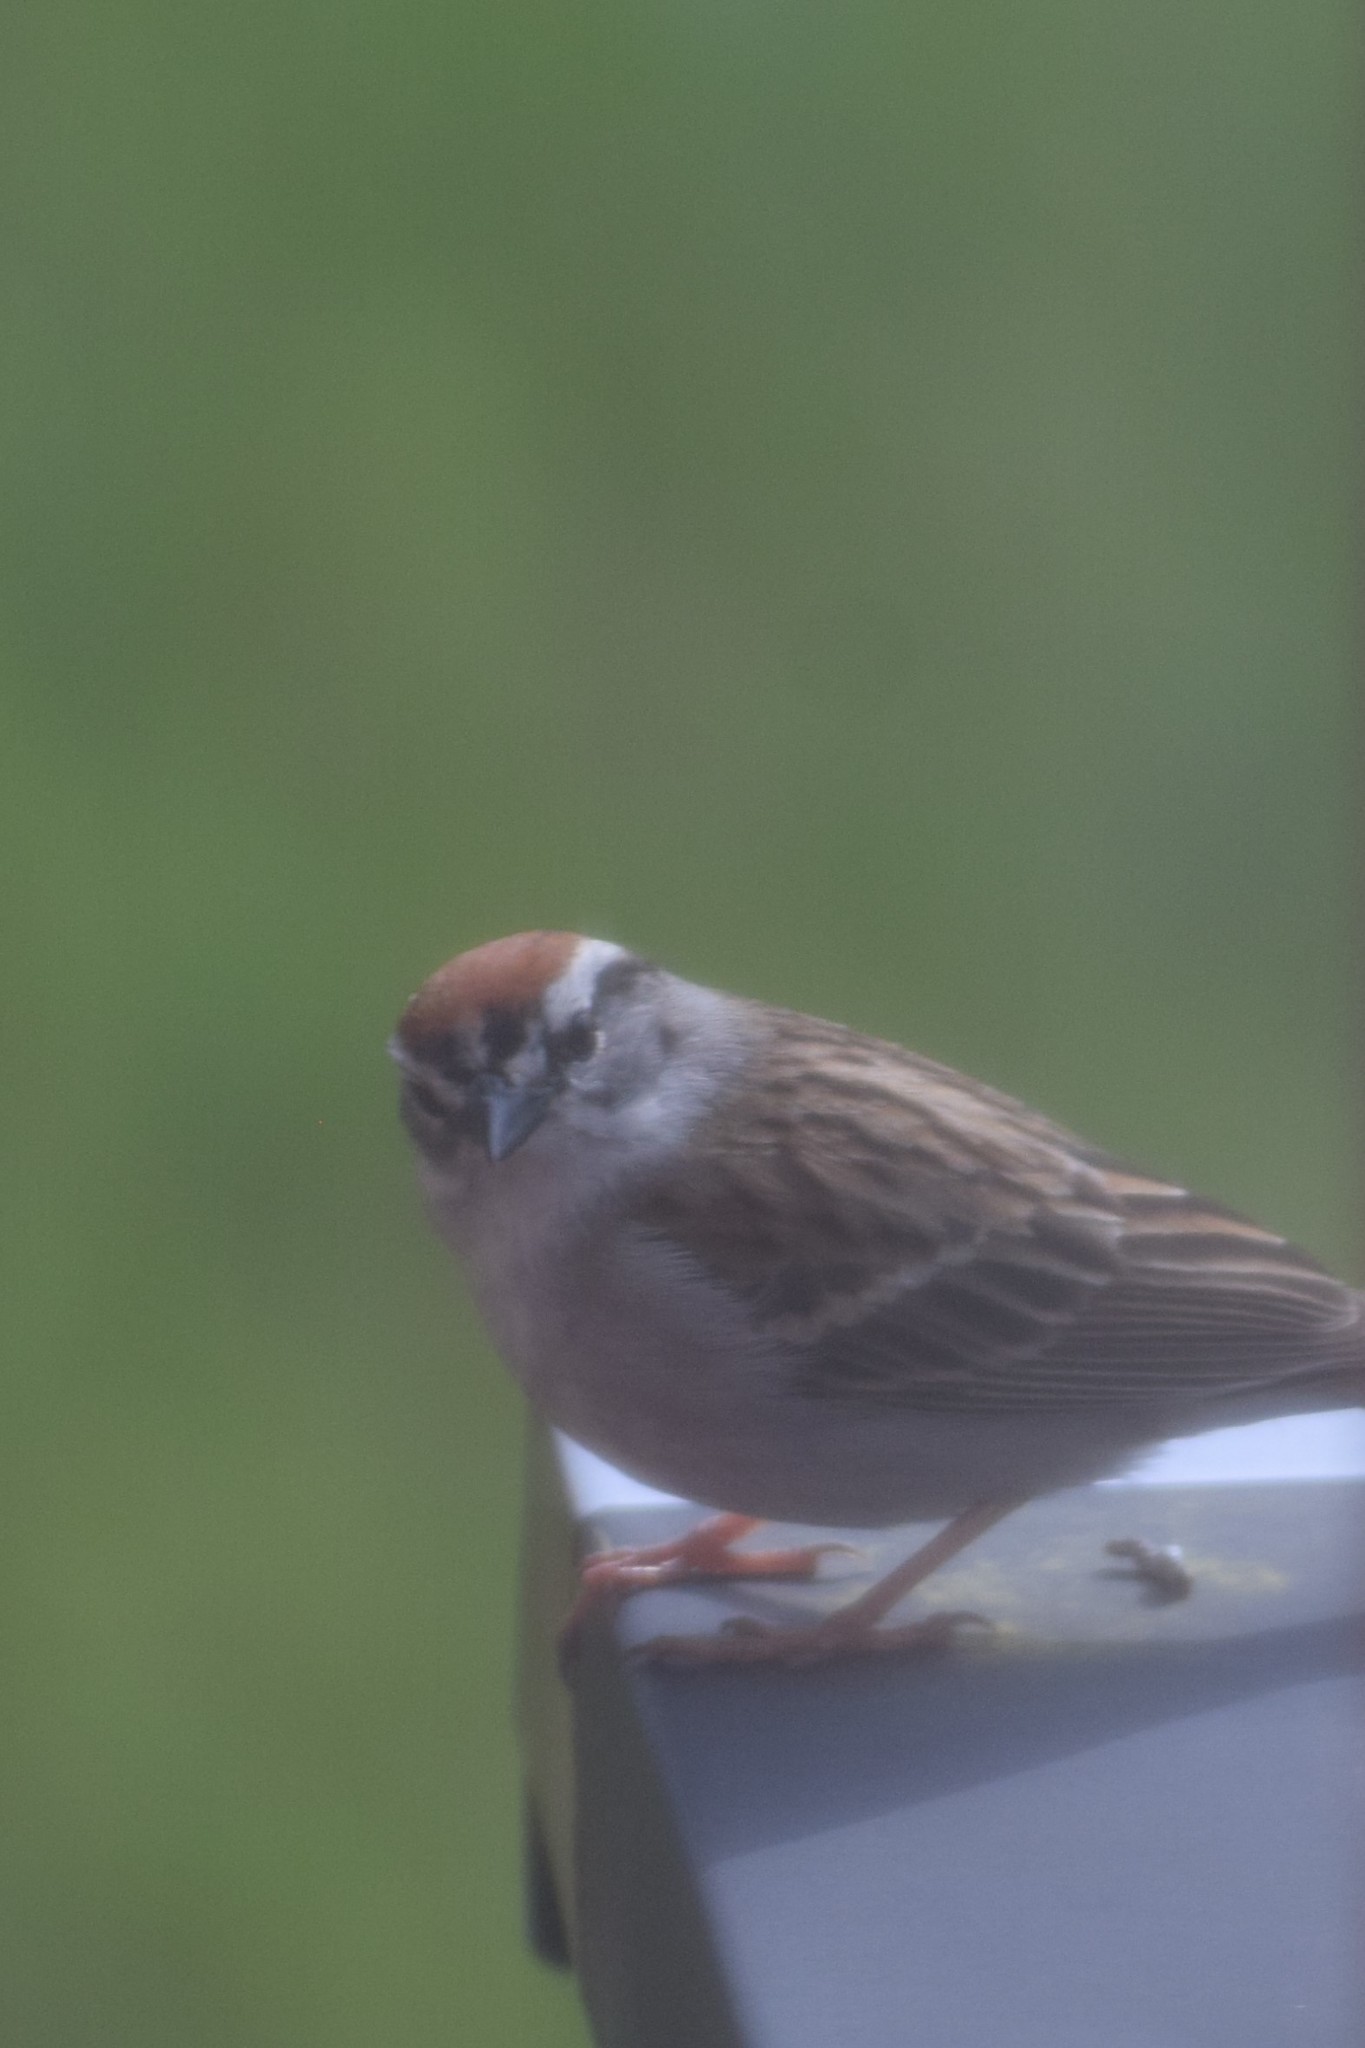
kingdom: Animalia
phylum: Chordata
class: Aves
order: Passeriformes
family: Passerellidae
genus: Spizella
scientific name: Spizella passerina
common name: Chipping sparrow
